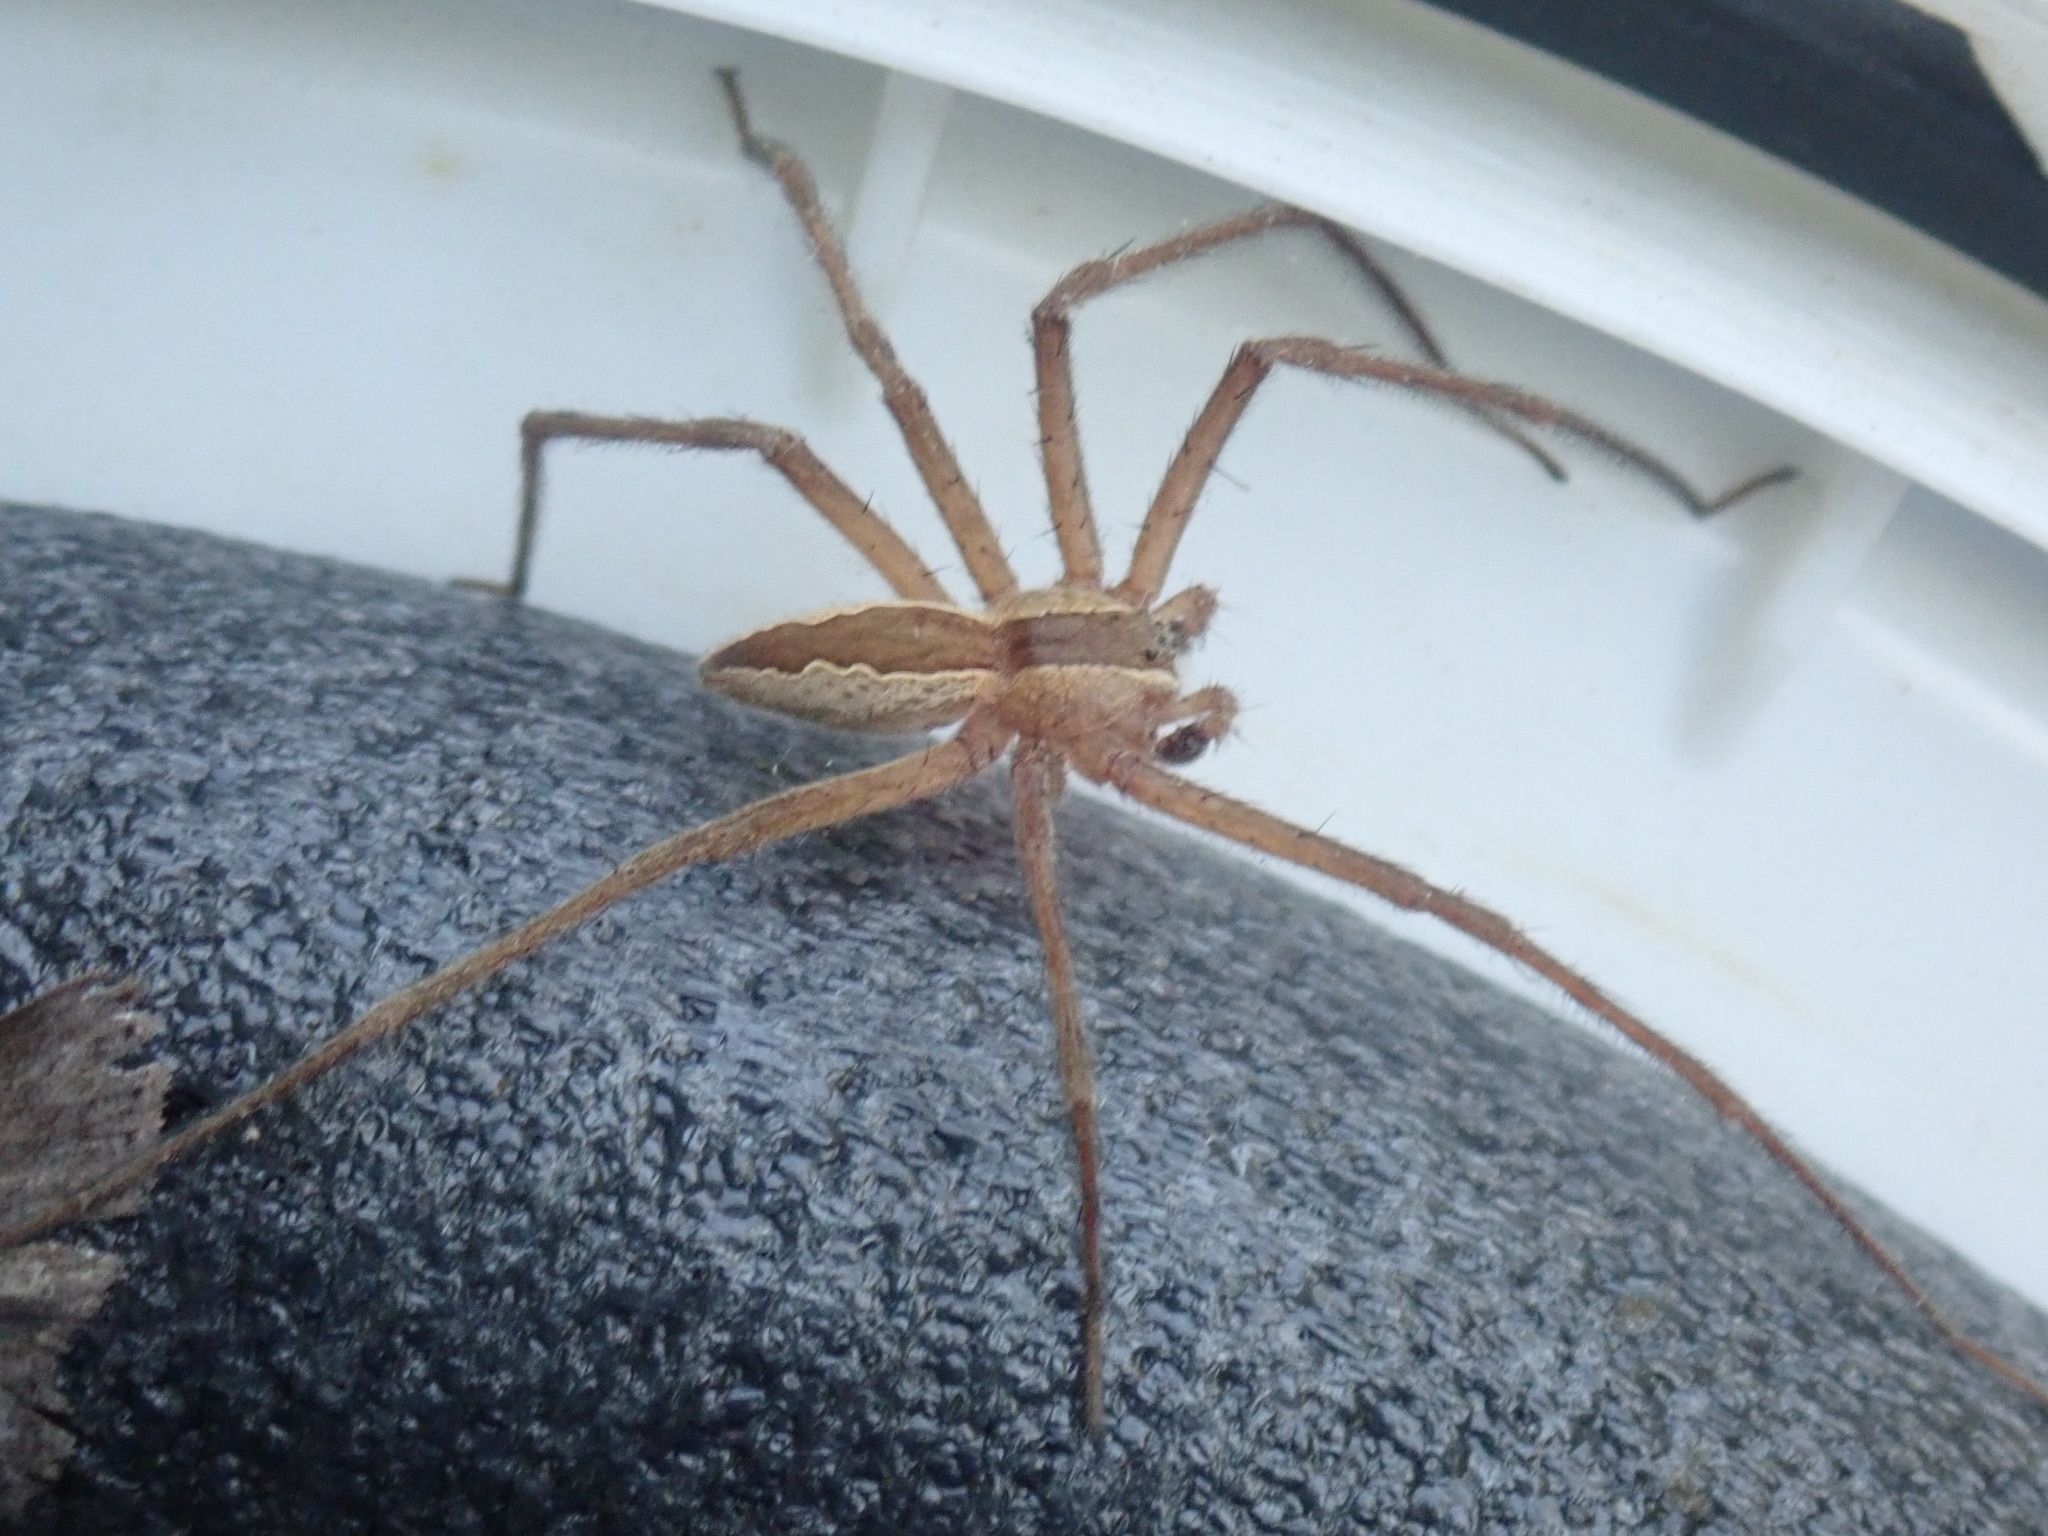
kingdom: Animalia
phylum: Arthropoda
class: Arachnida
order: Araneae
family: Pisauridae
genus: Pisaurina
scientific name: Pisaurina mira
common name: American nursery web spider
